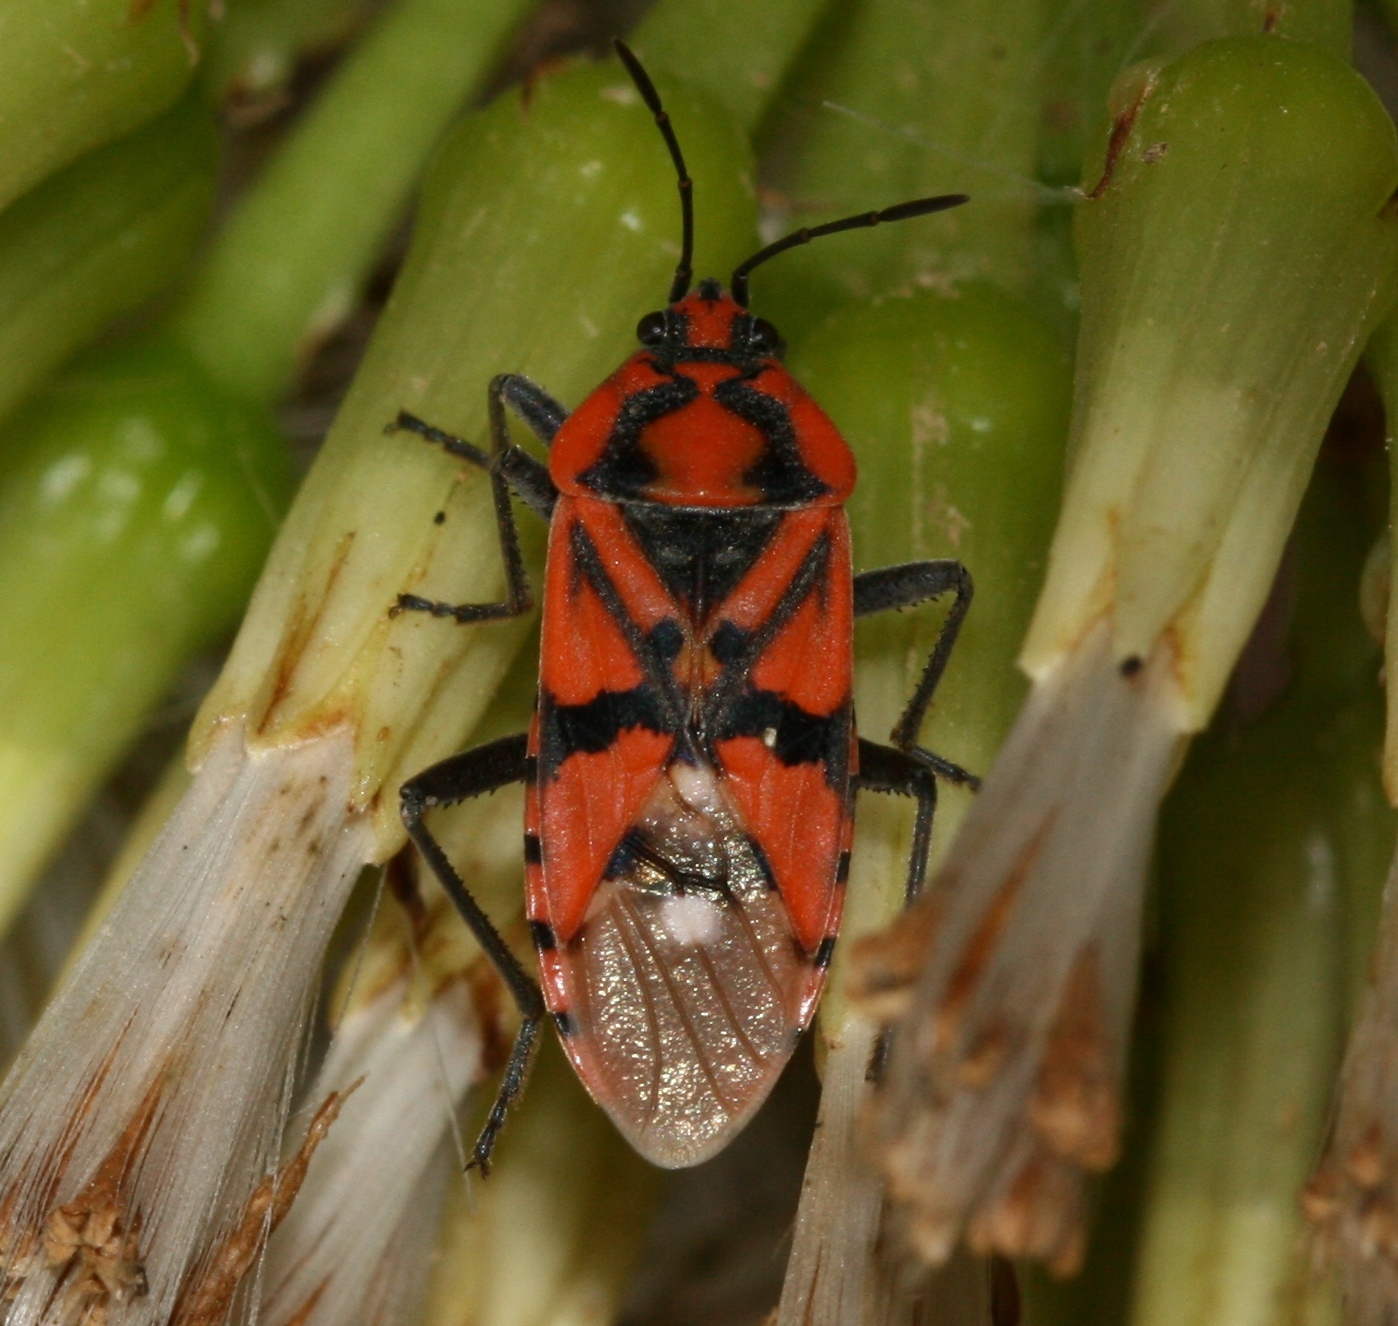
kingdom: Animalia
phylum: Arthropoda
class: Insecta
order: Hemiptera
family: Lygaeidae
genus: Spilostethus
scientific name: Spilostethus pandurus
